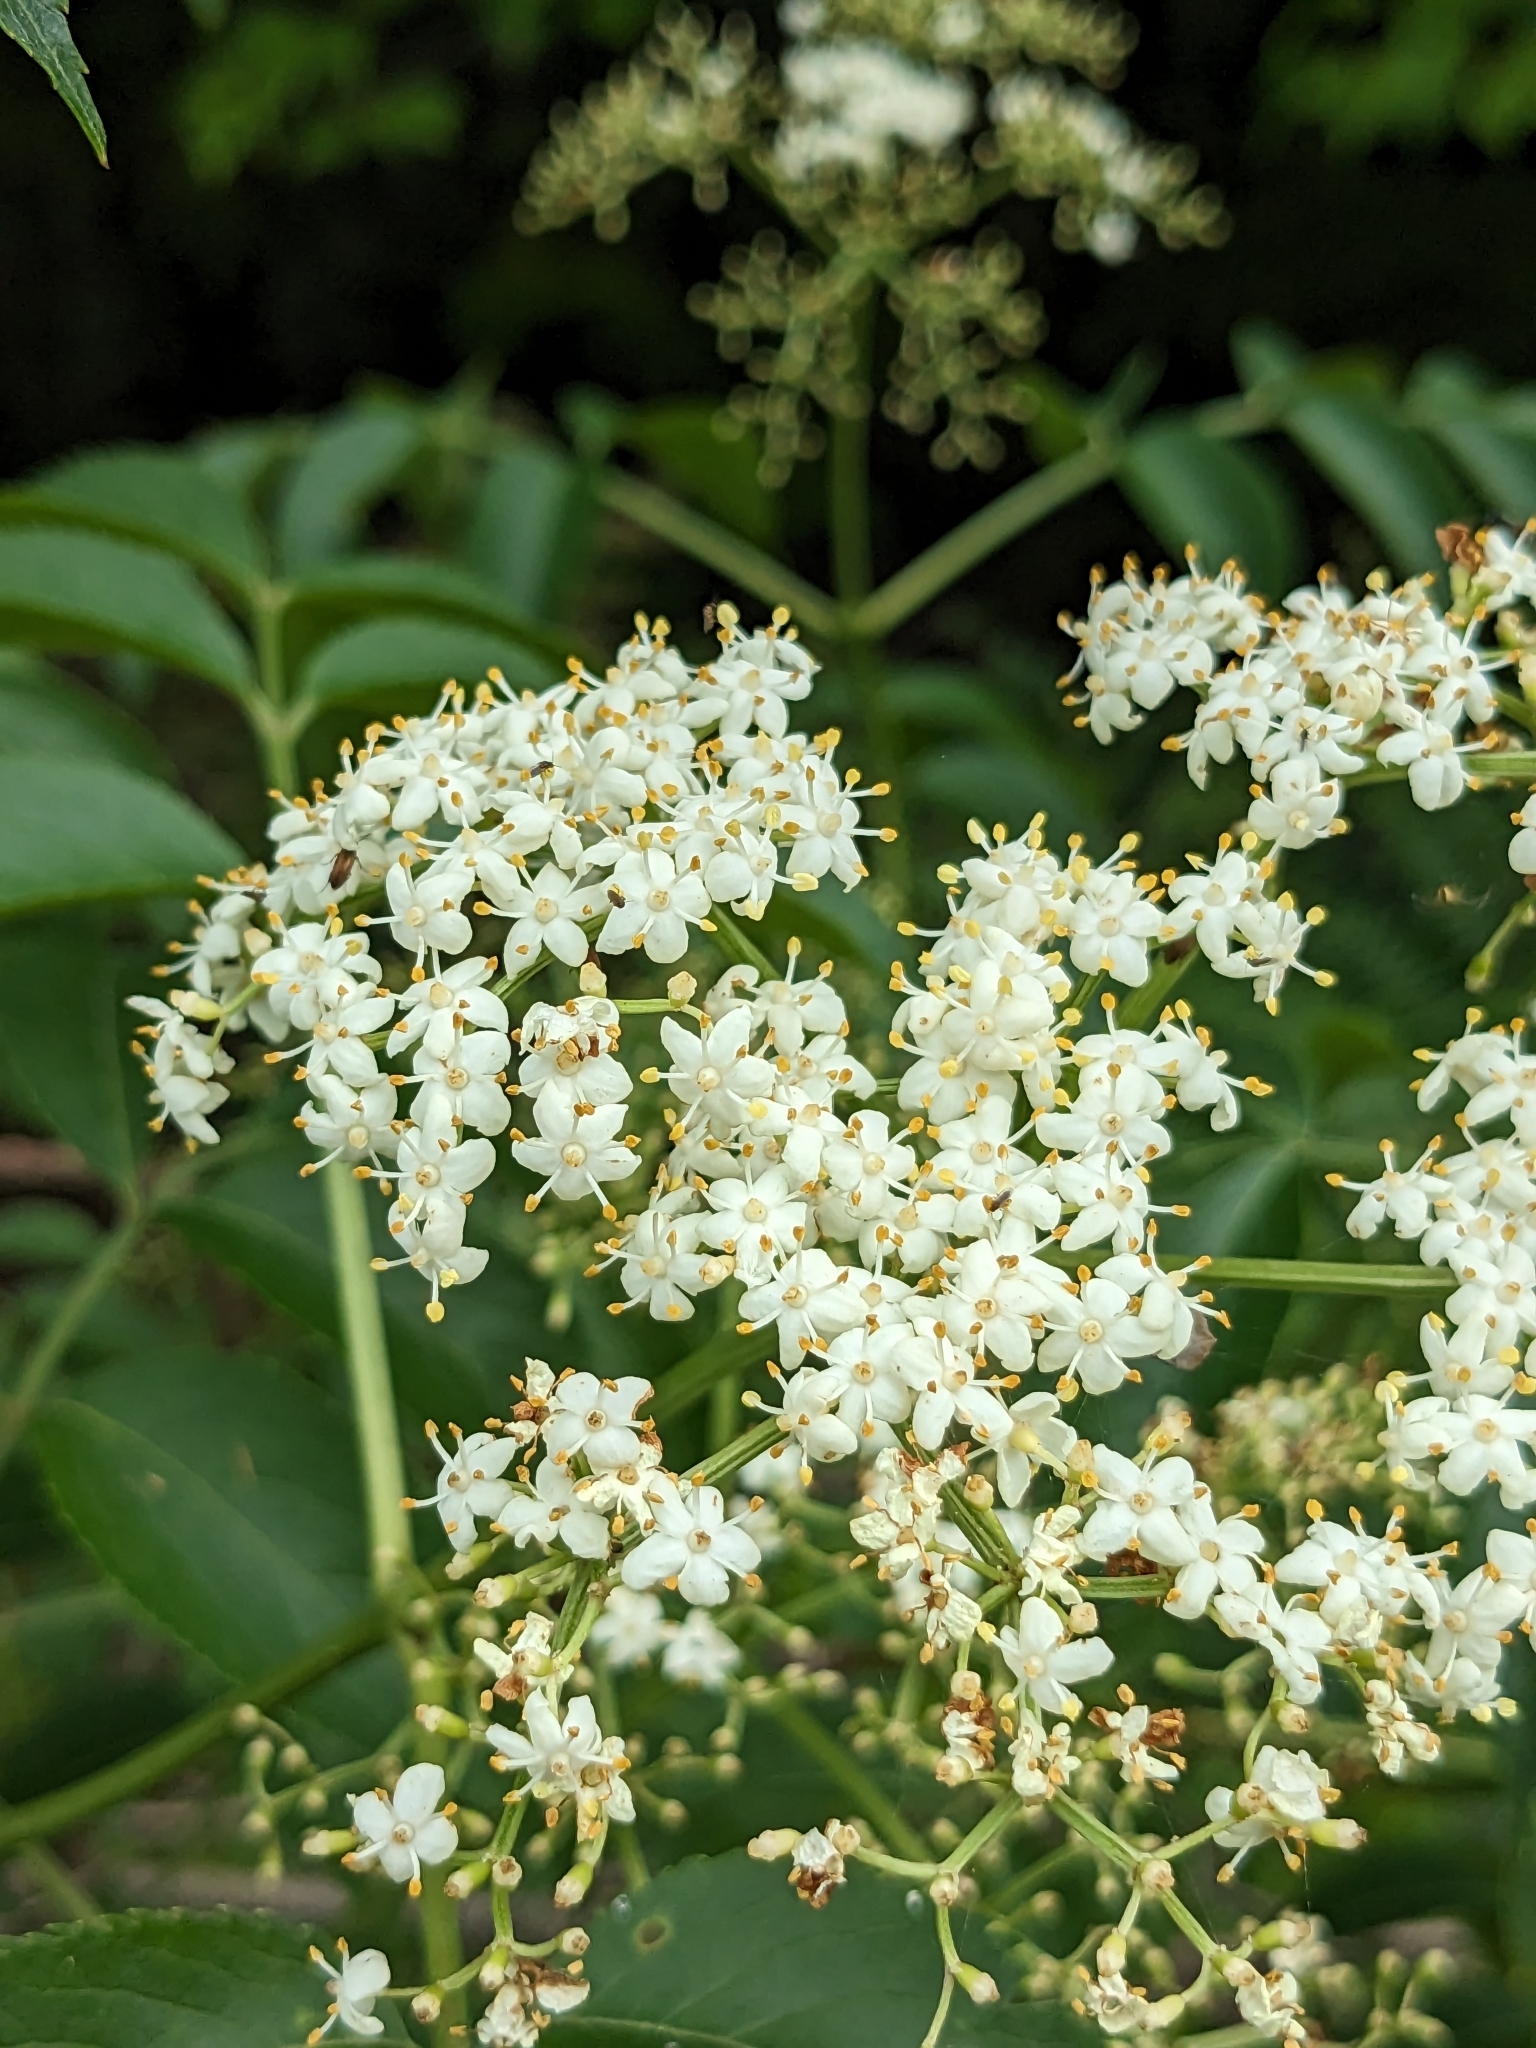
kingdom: Plantae
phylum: Tracheophyta
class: Magnoliopsida
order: Dipsacales
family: Viburnaceae
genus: Sambucus
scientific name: Sambucus canadensis
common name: American elder
